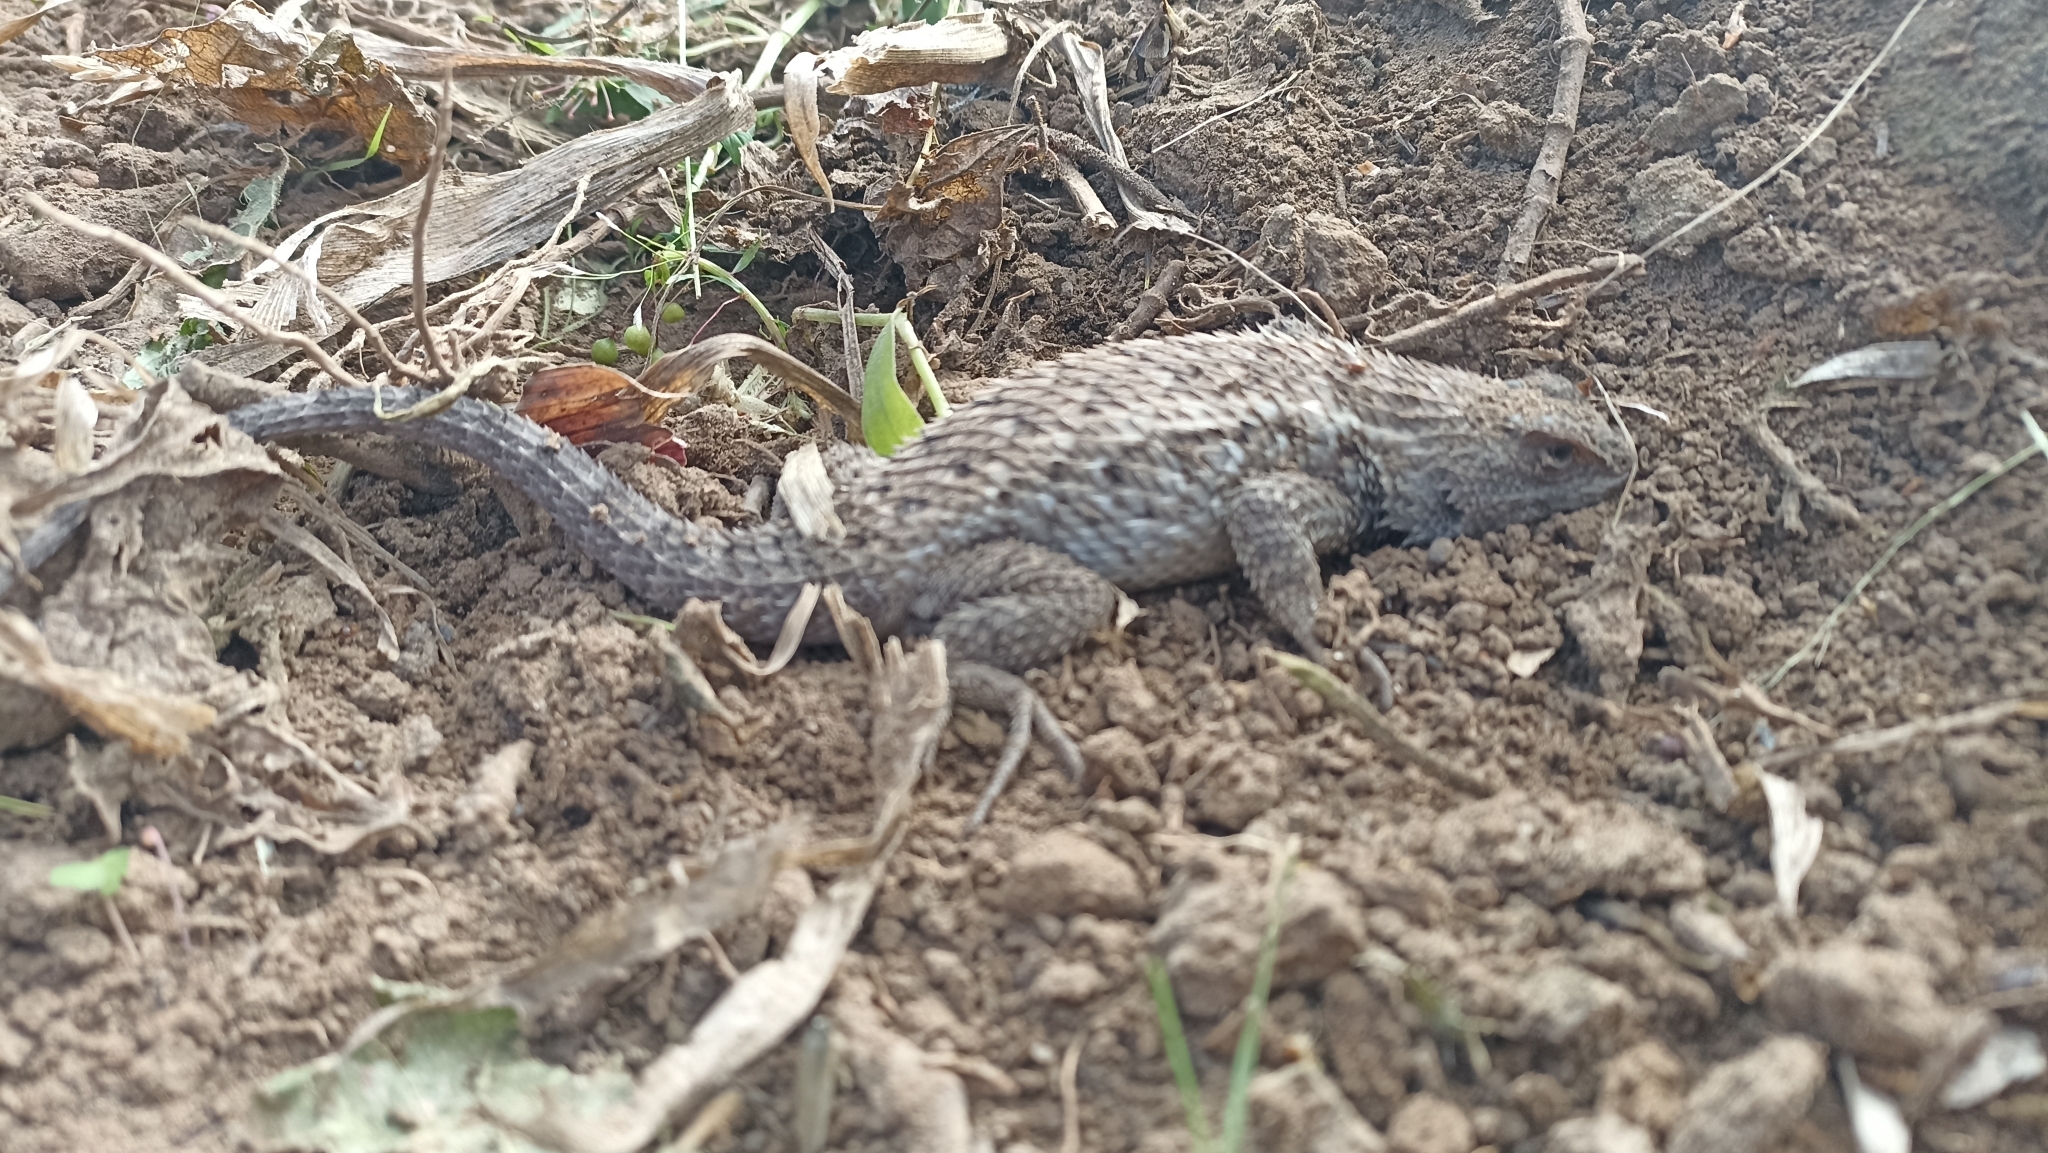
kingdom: Animalia
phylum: Chordata
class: Squamata
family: Phrynosomatidae
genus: Sceloporus
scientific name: Sceloporus spinosus
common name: Blue-spotted spiny lizard [caeruleopunctatus]
